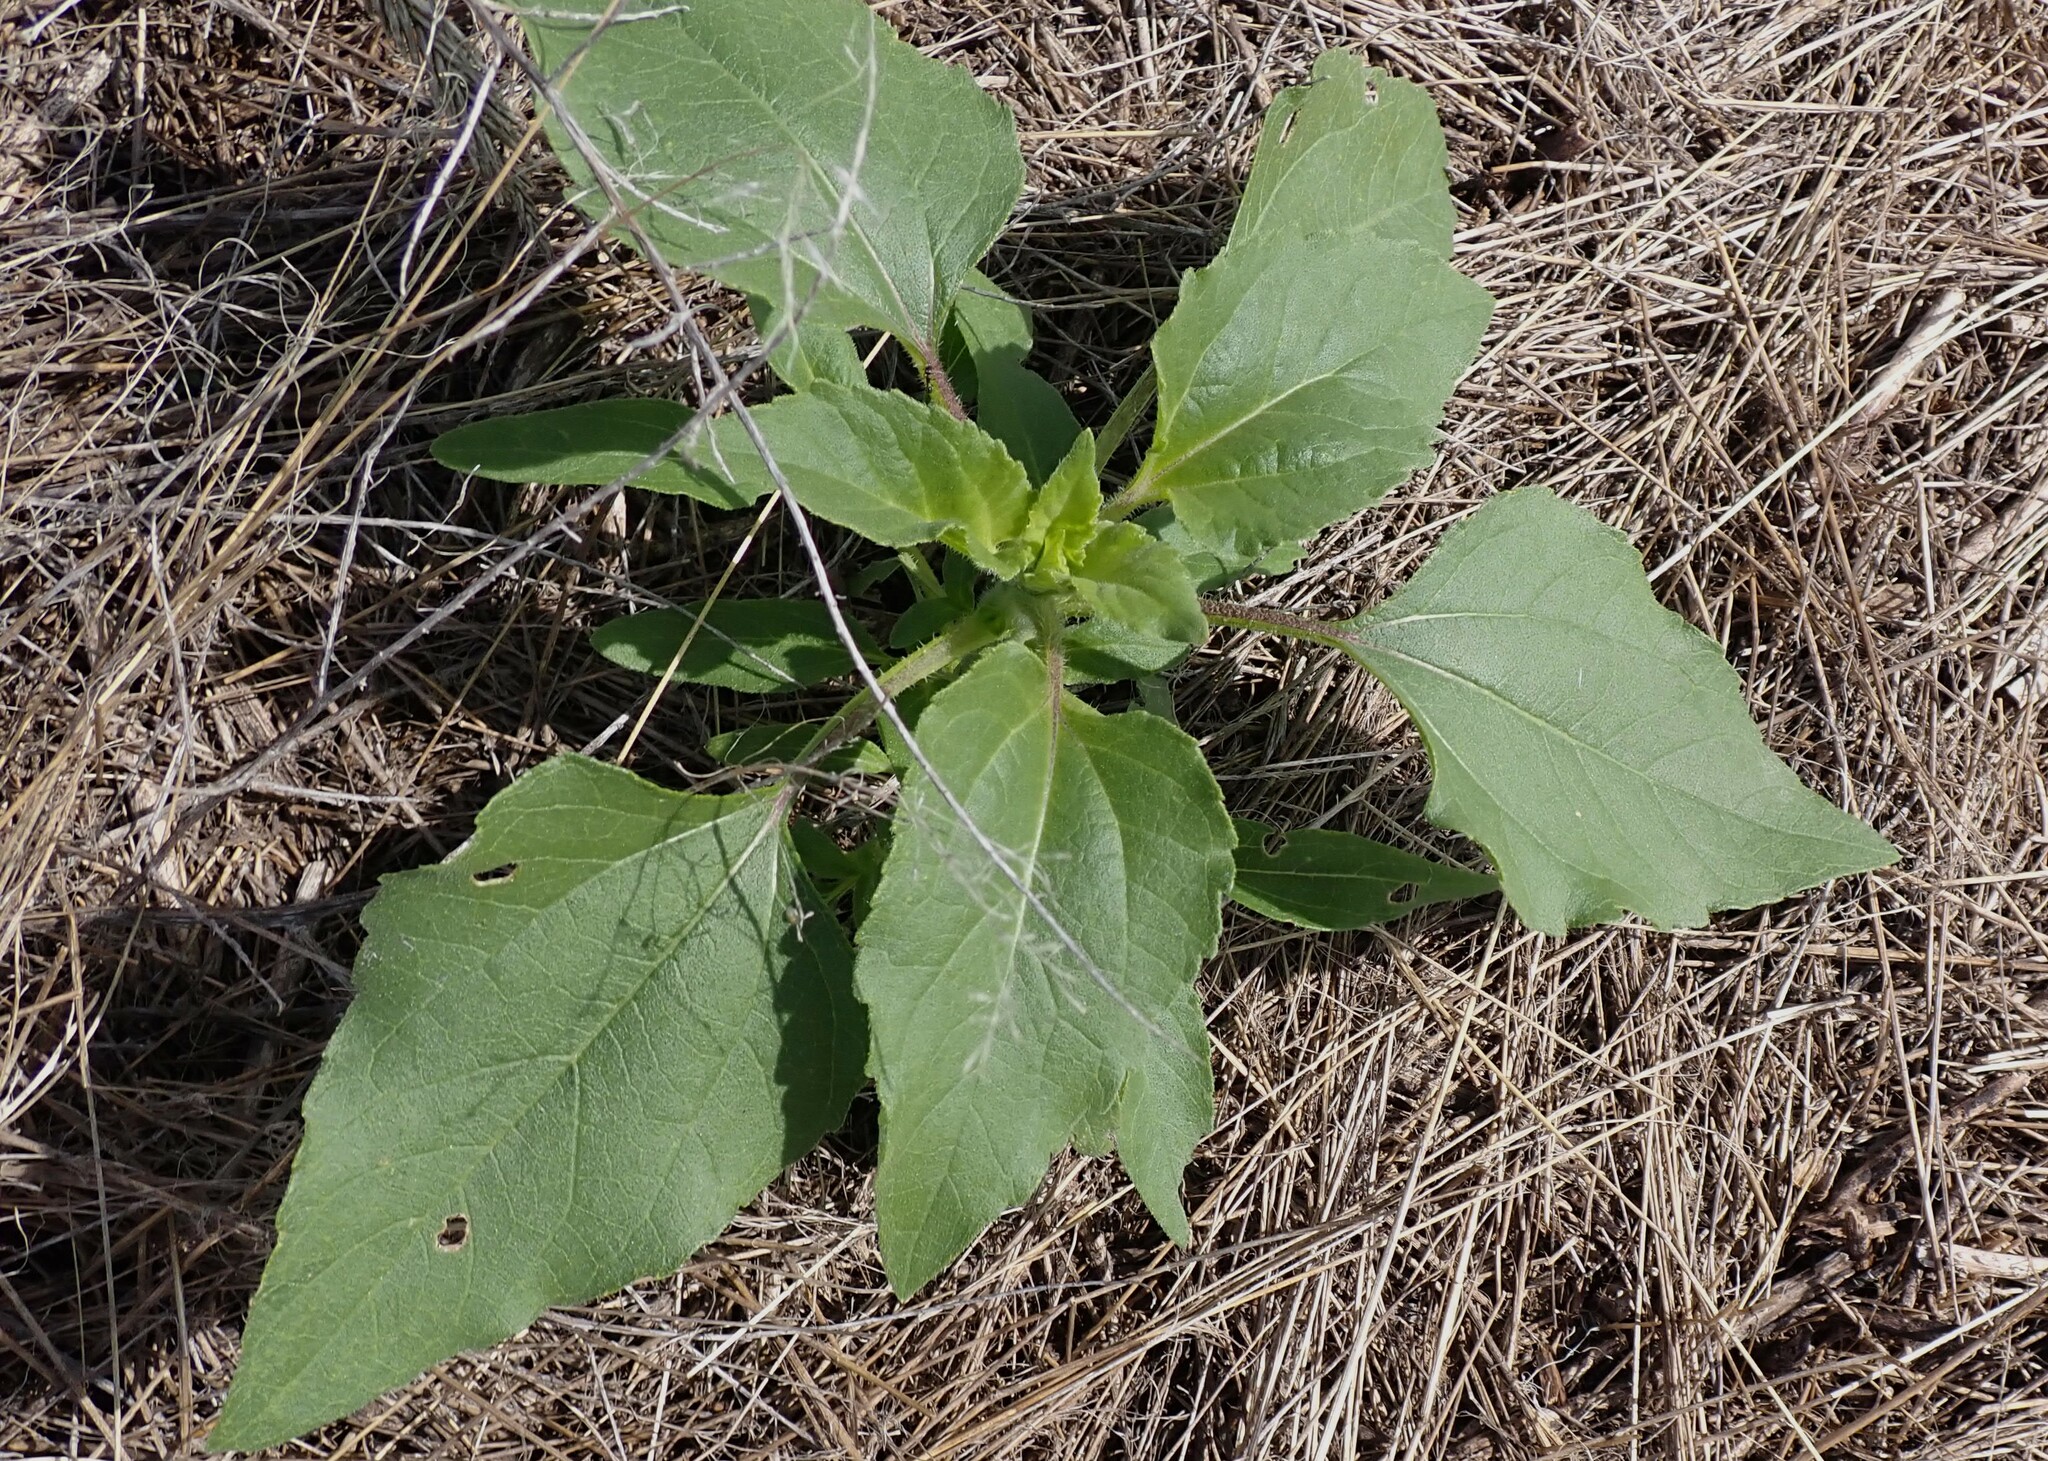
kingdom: Plantae
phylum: Tracheophyta
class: Magnoliopsida
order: Asterales
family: Asteraceae
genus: Helianthus
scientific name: Helianthus annuus
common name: Sunflower
